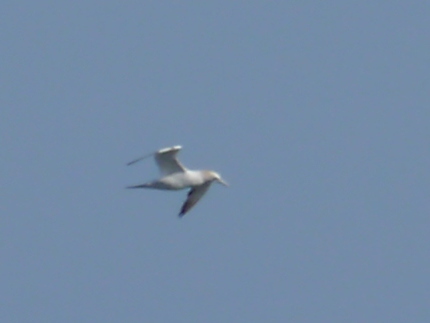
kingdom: Animalia
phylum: Chordata
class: Aves
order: Suliformes
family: Sulidae
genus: Morus
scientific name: Morus bassanus
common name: Northern gannet
